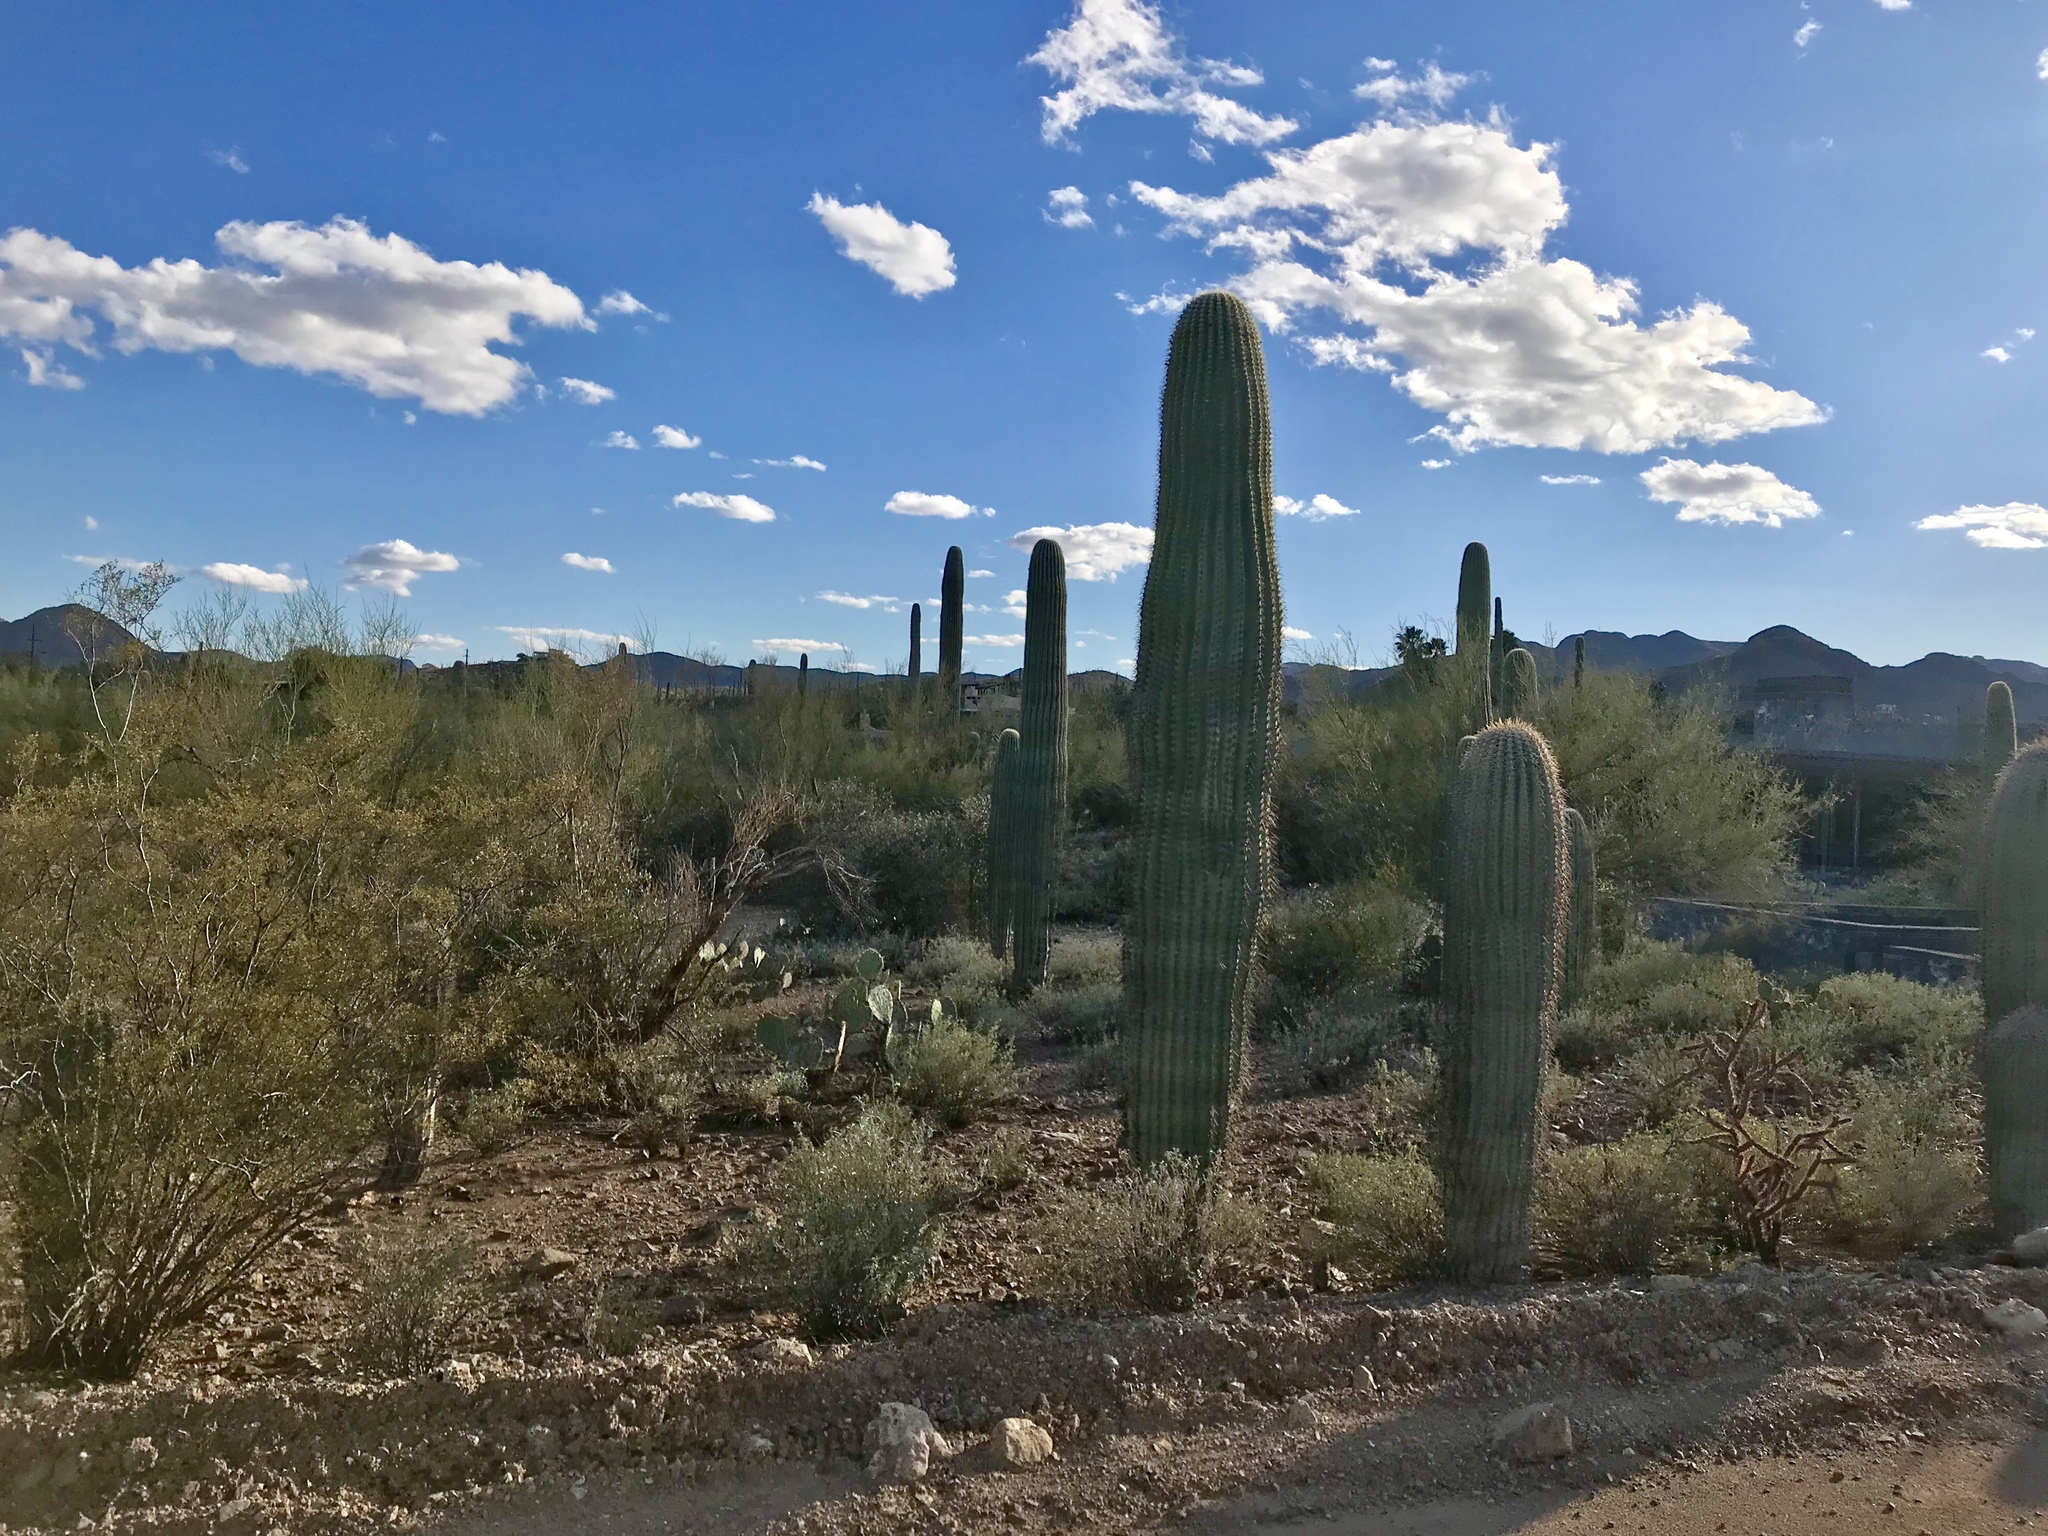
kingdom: Plantae
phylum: Tracheophyta
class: Magnoliopsida
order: Caryophyllales
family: Cactaceae
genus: Carnegiea
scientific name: Carnegiea gigantea
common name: Saguaro
